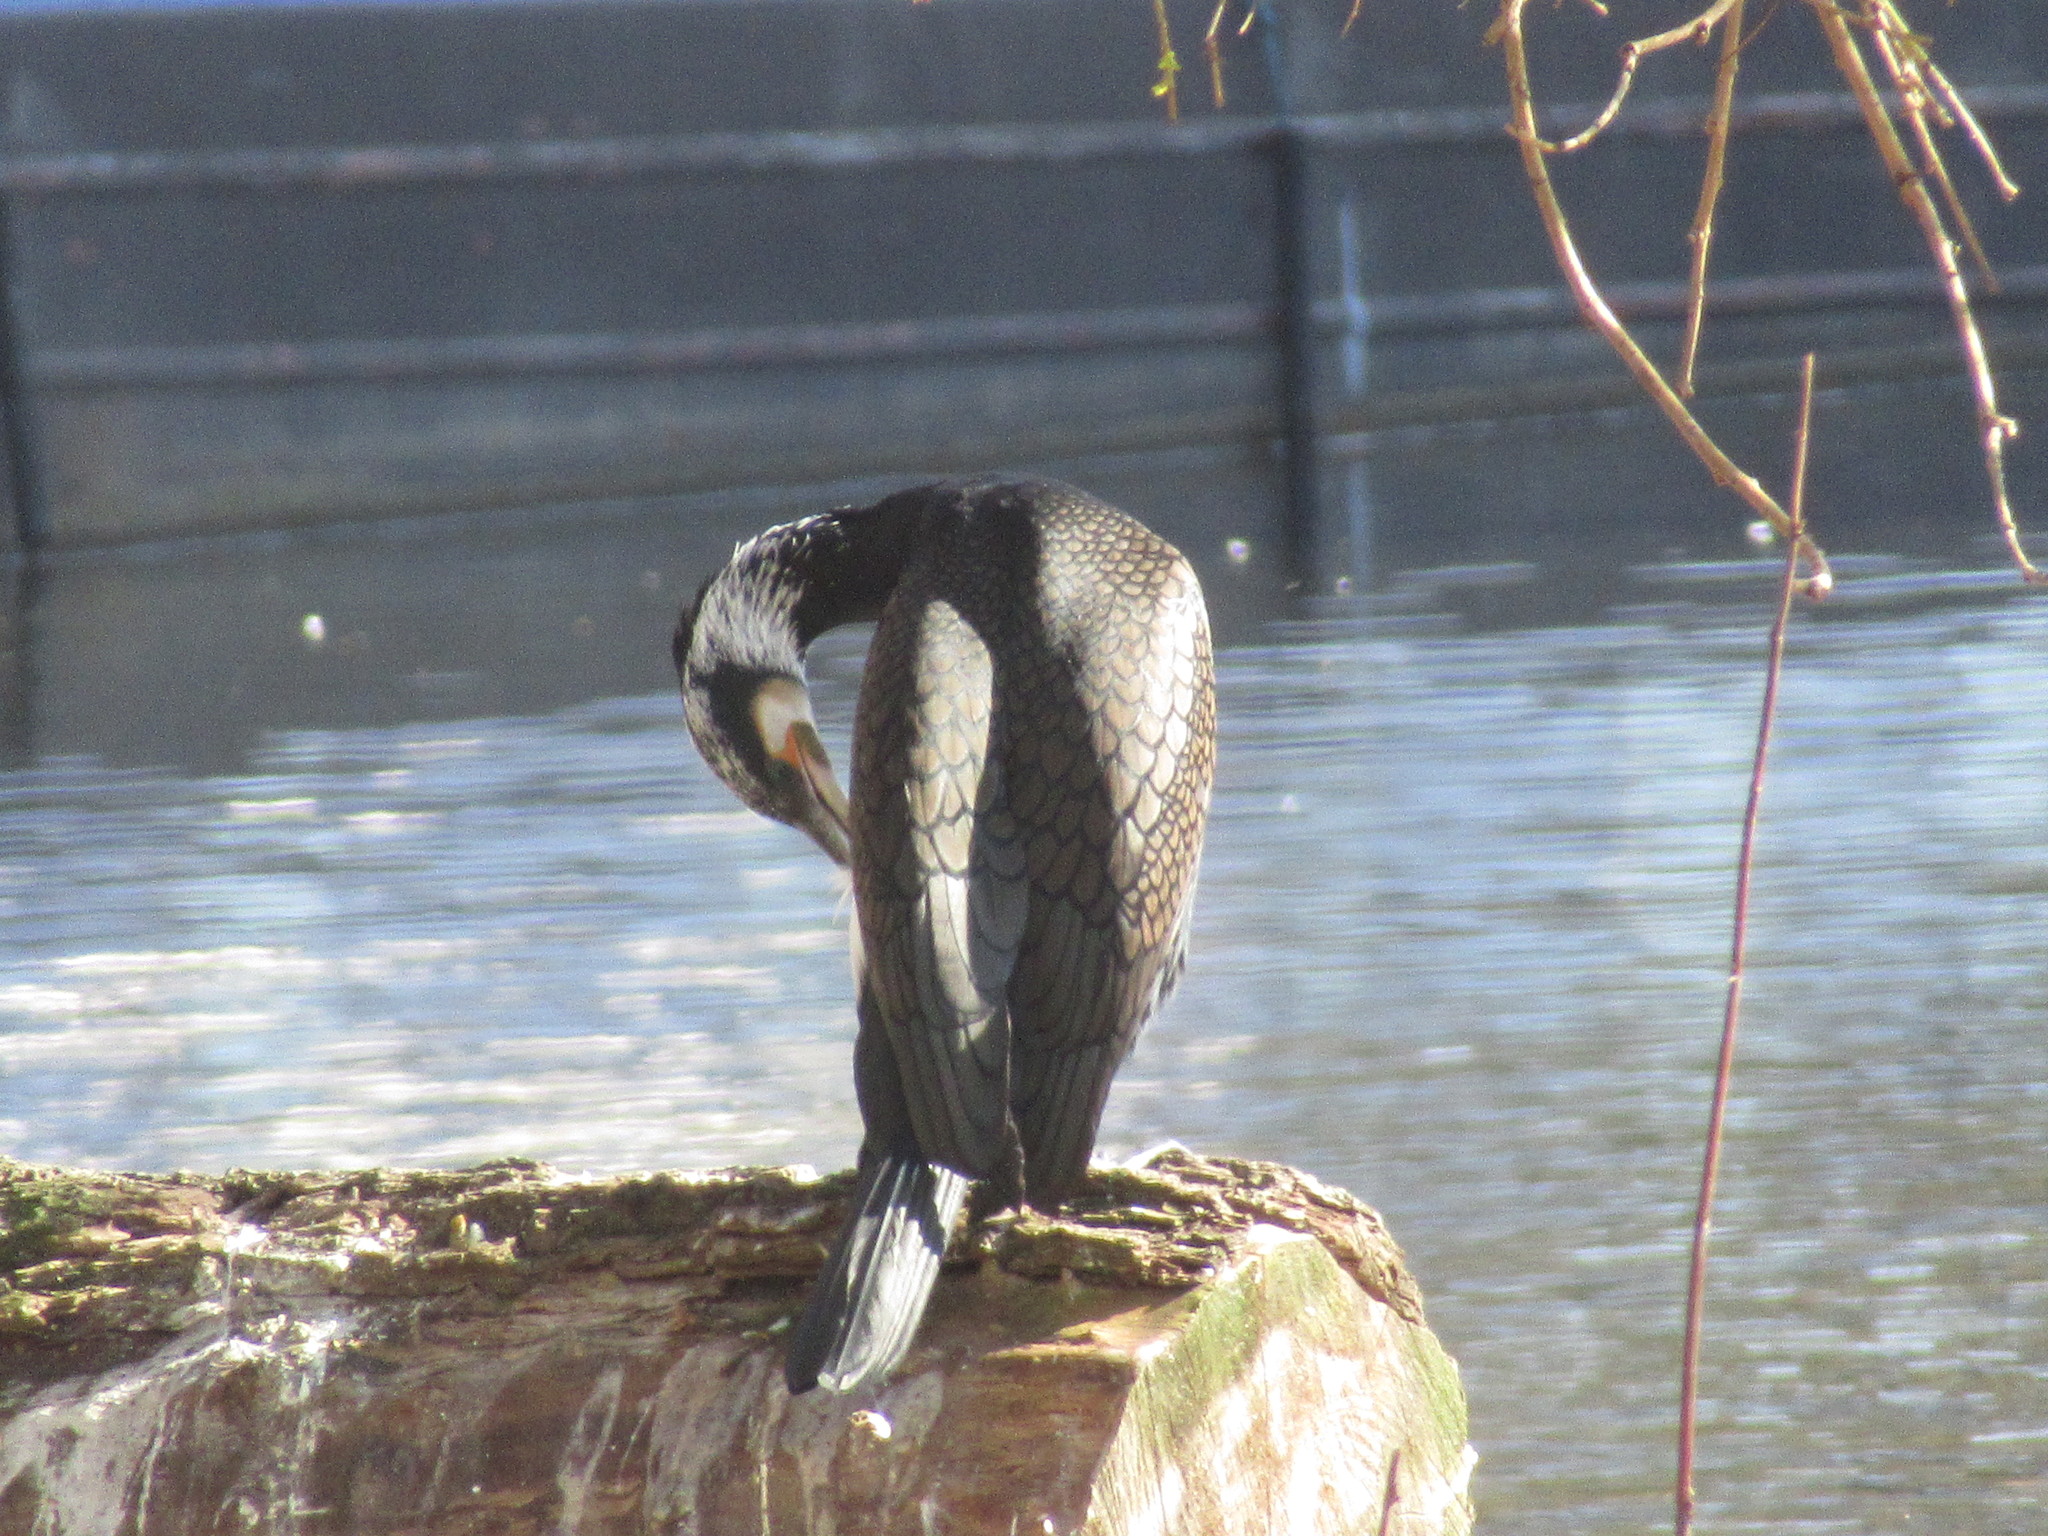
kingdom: Animalia
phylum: Chordata
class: Aves
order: Suliformes
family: Phalacrocoracidae
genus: Phalacrocorax
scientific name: Phalacrocorax carbo
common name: Great cormorant
